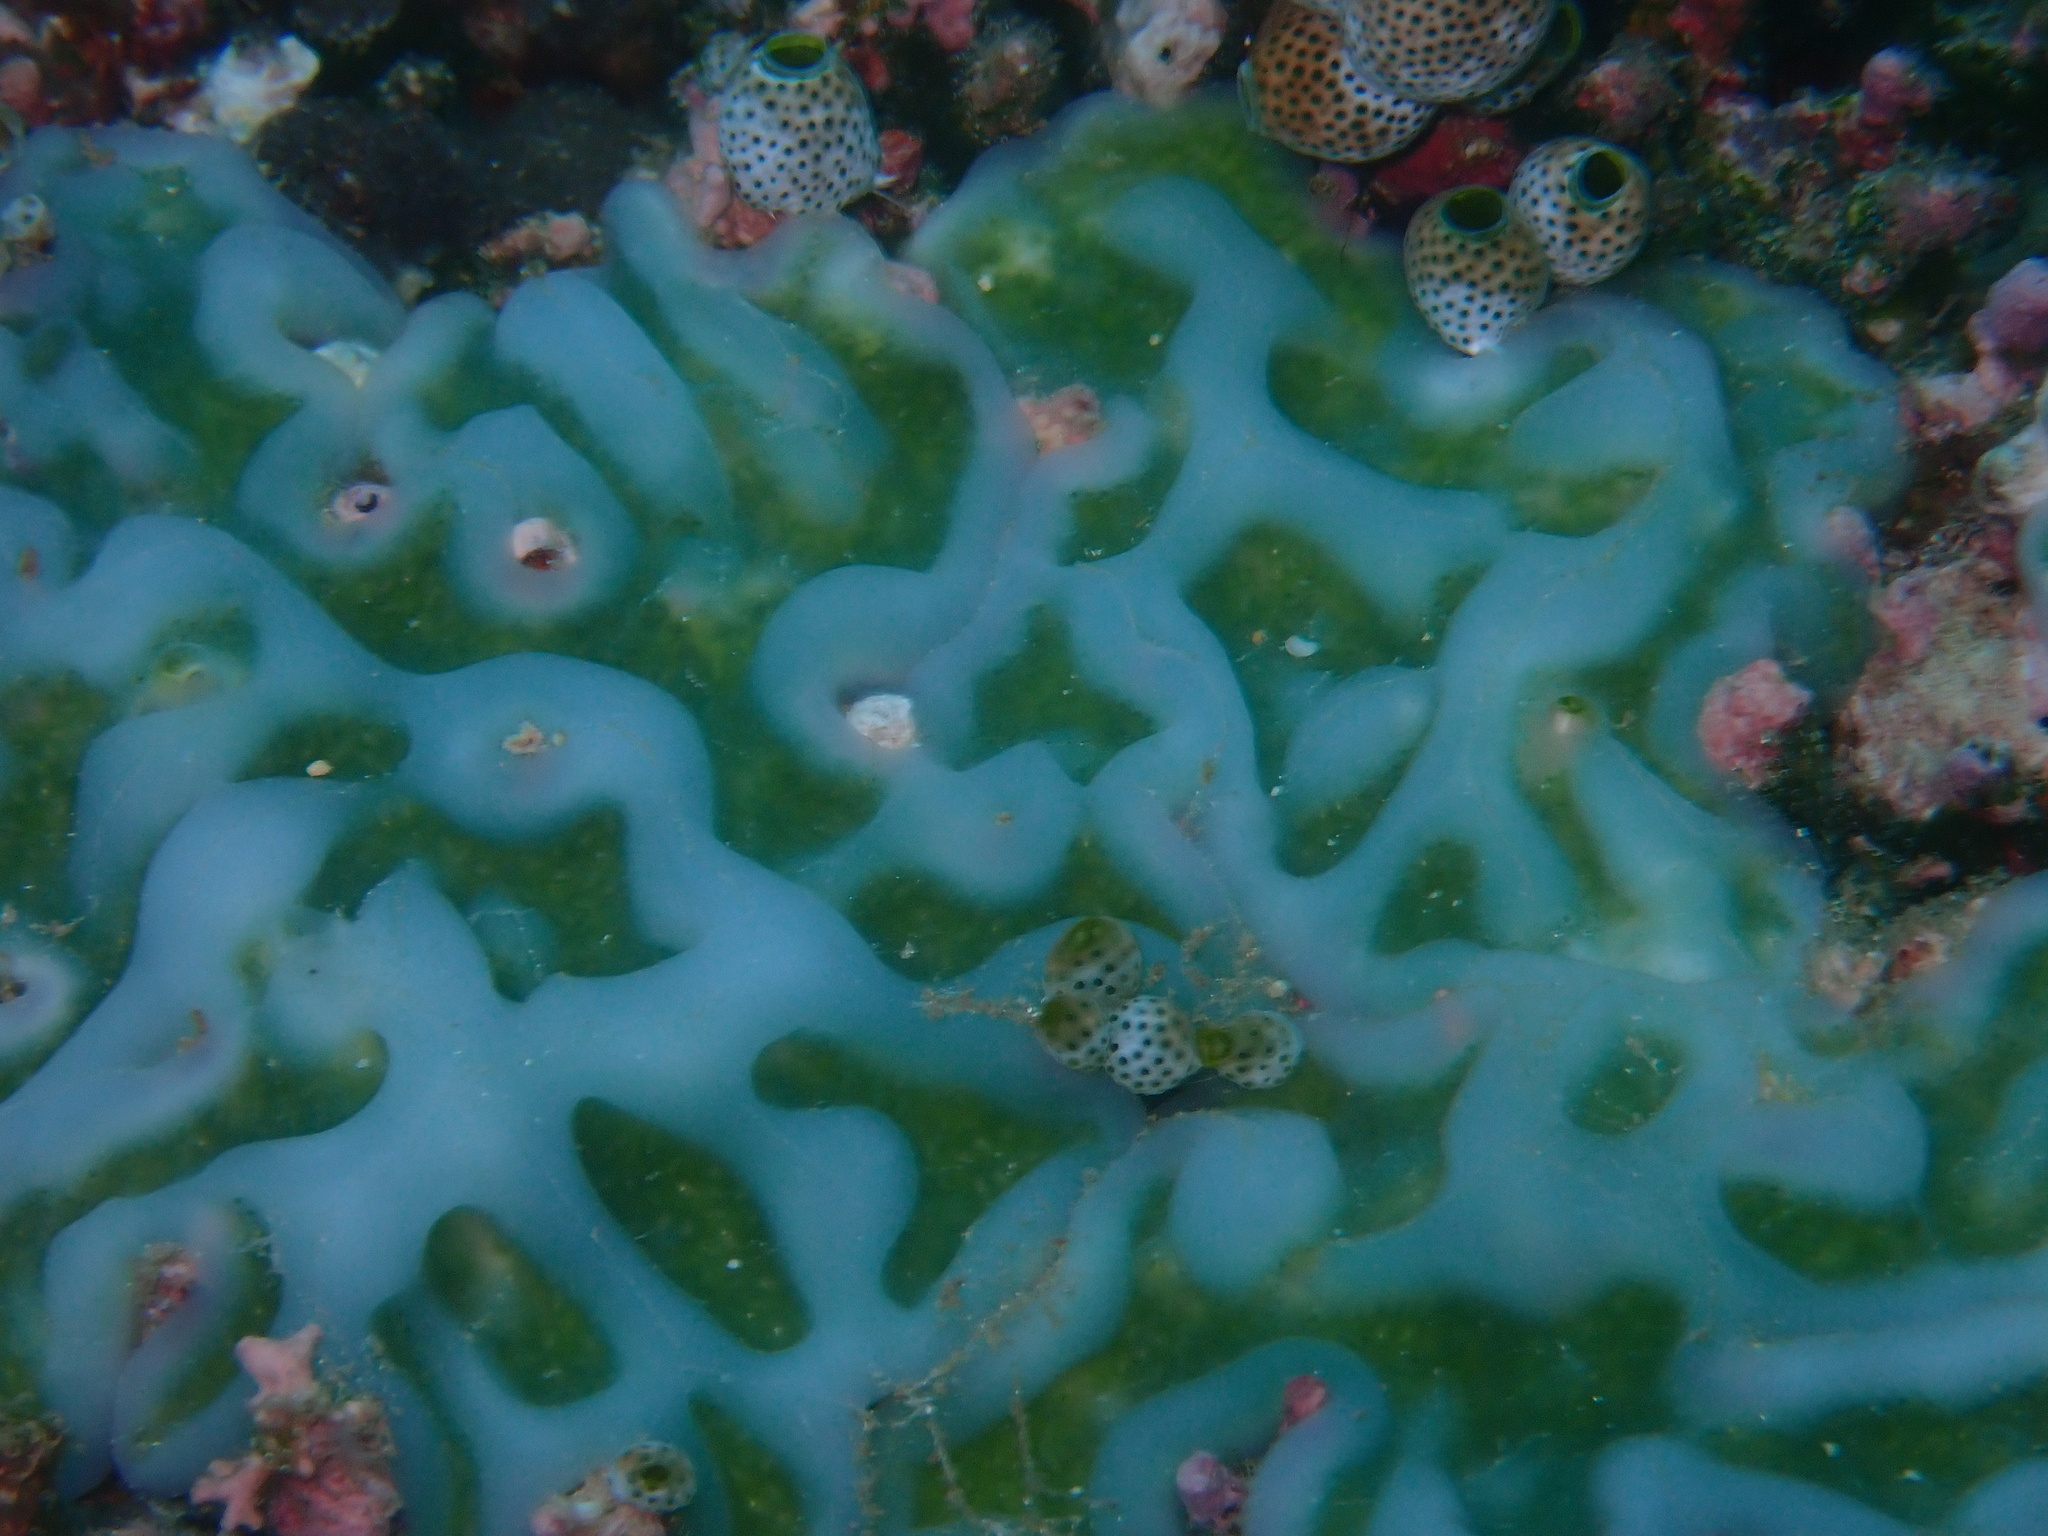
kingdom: Animalia
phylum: Chordata
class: Ascidiacea
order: Aplousobranchia
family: Didemnidae
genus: Lissoclinum
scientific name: Lissoclinum patella
